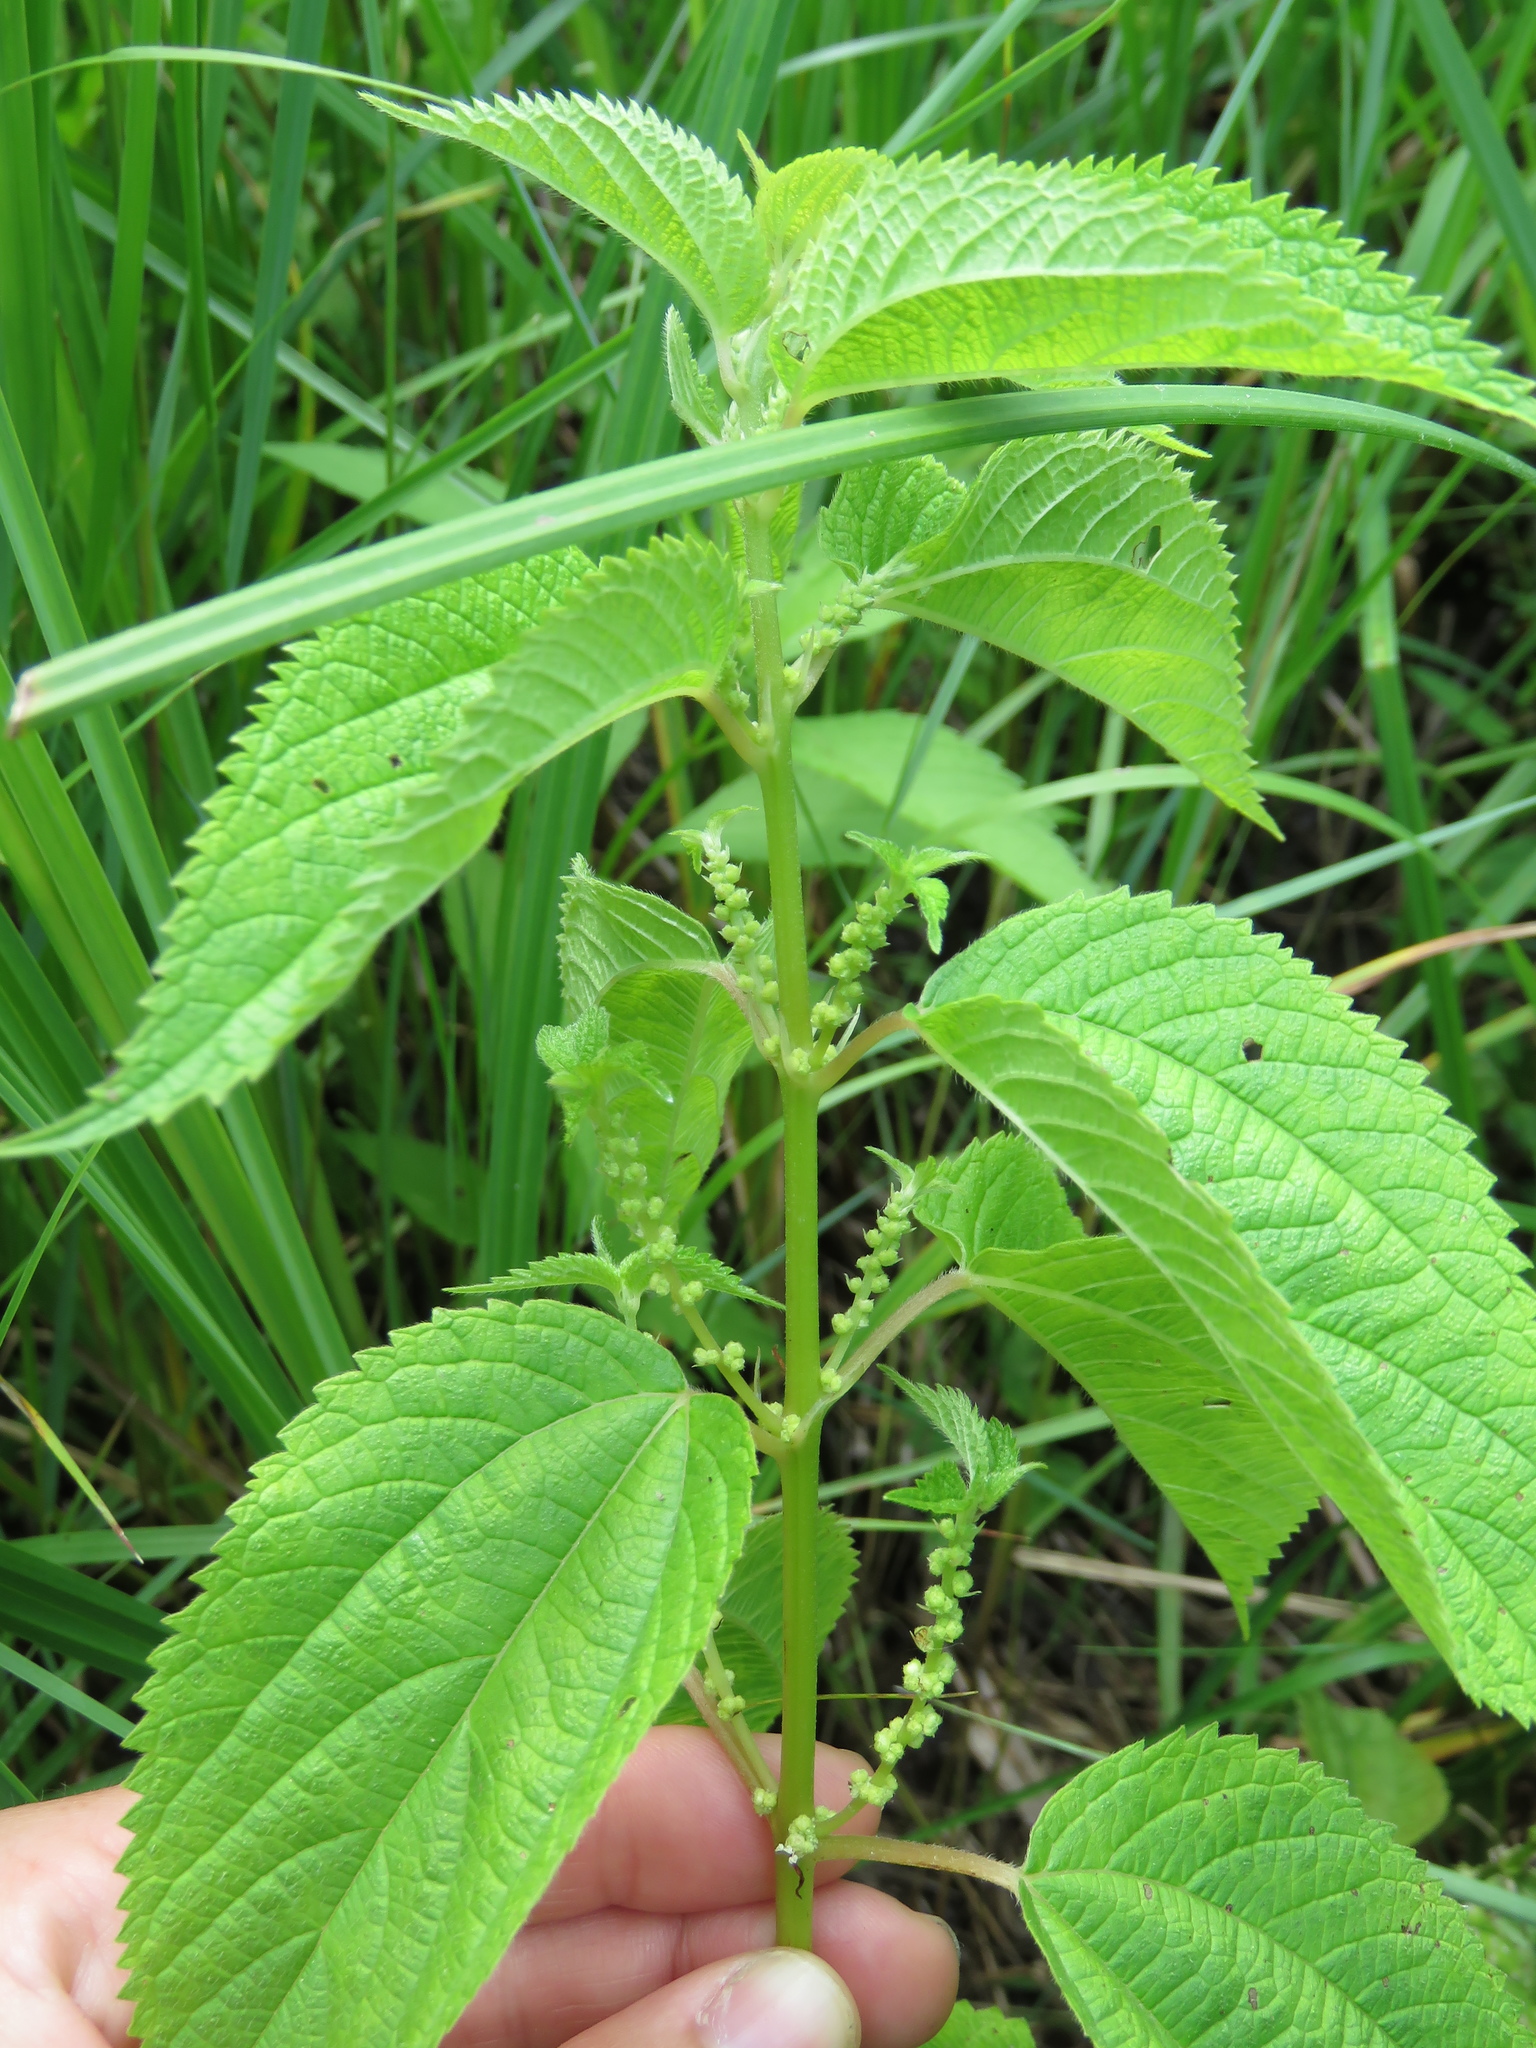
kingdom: Plantae
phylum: Tracheophyta
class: Magnoliopsida
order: Rosales
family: Urticaceae
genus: Boehmeria
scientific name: Boehmeria cylindrica
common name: Bog-hemp
